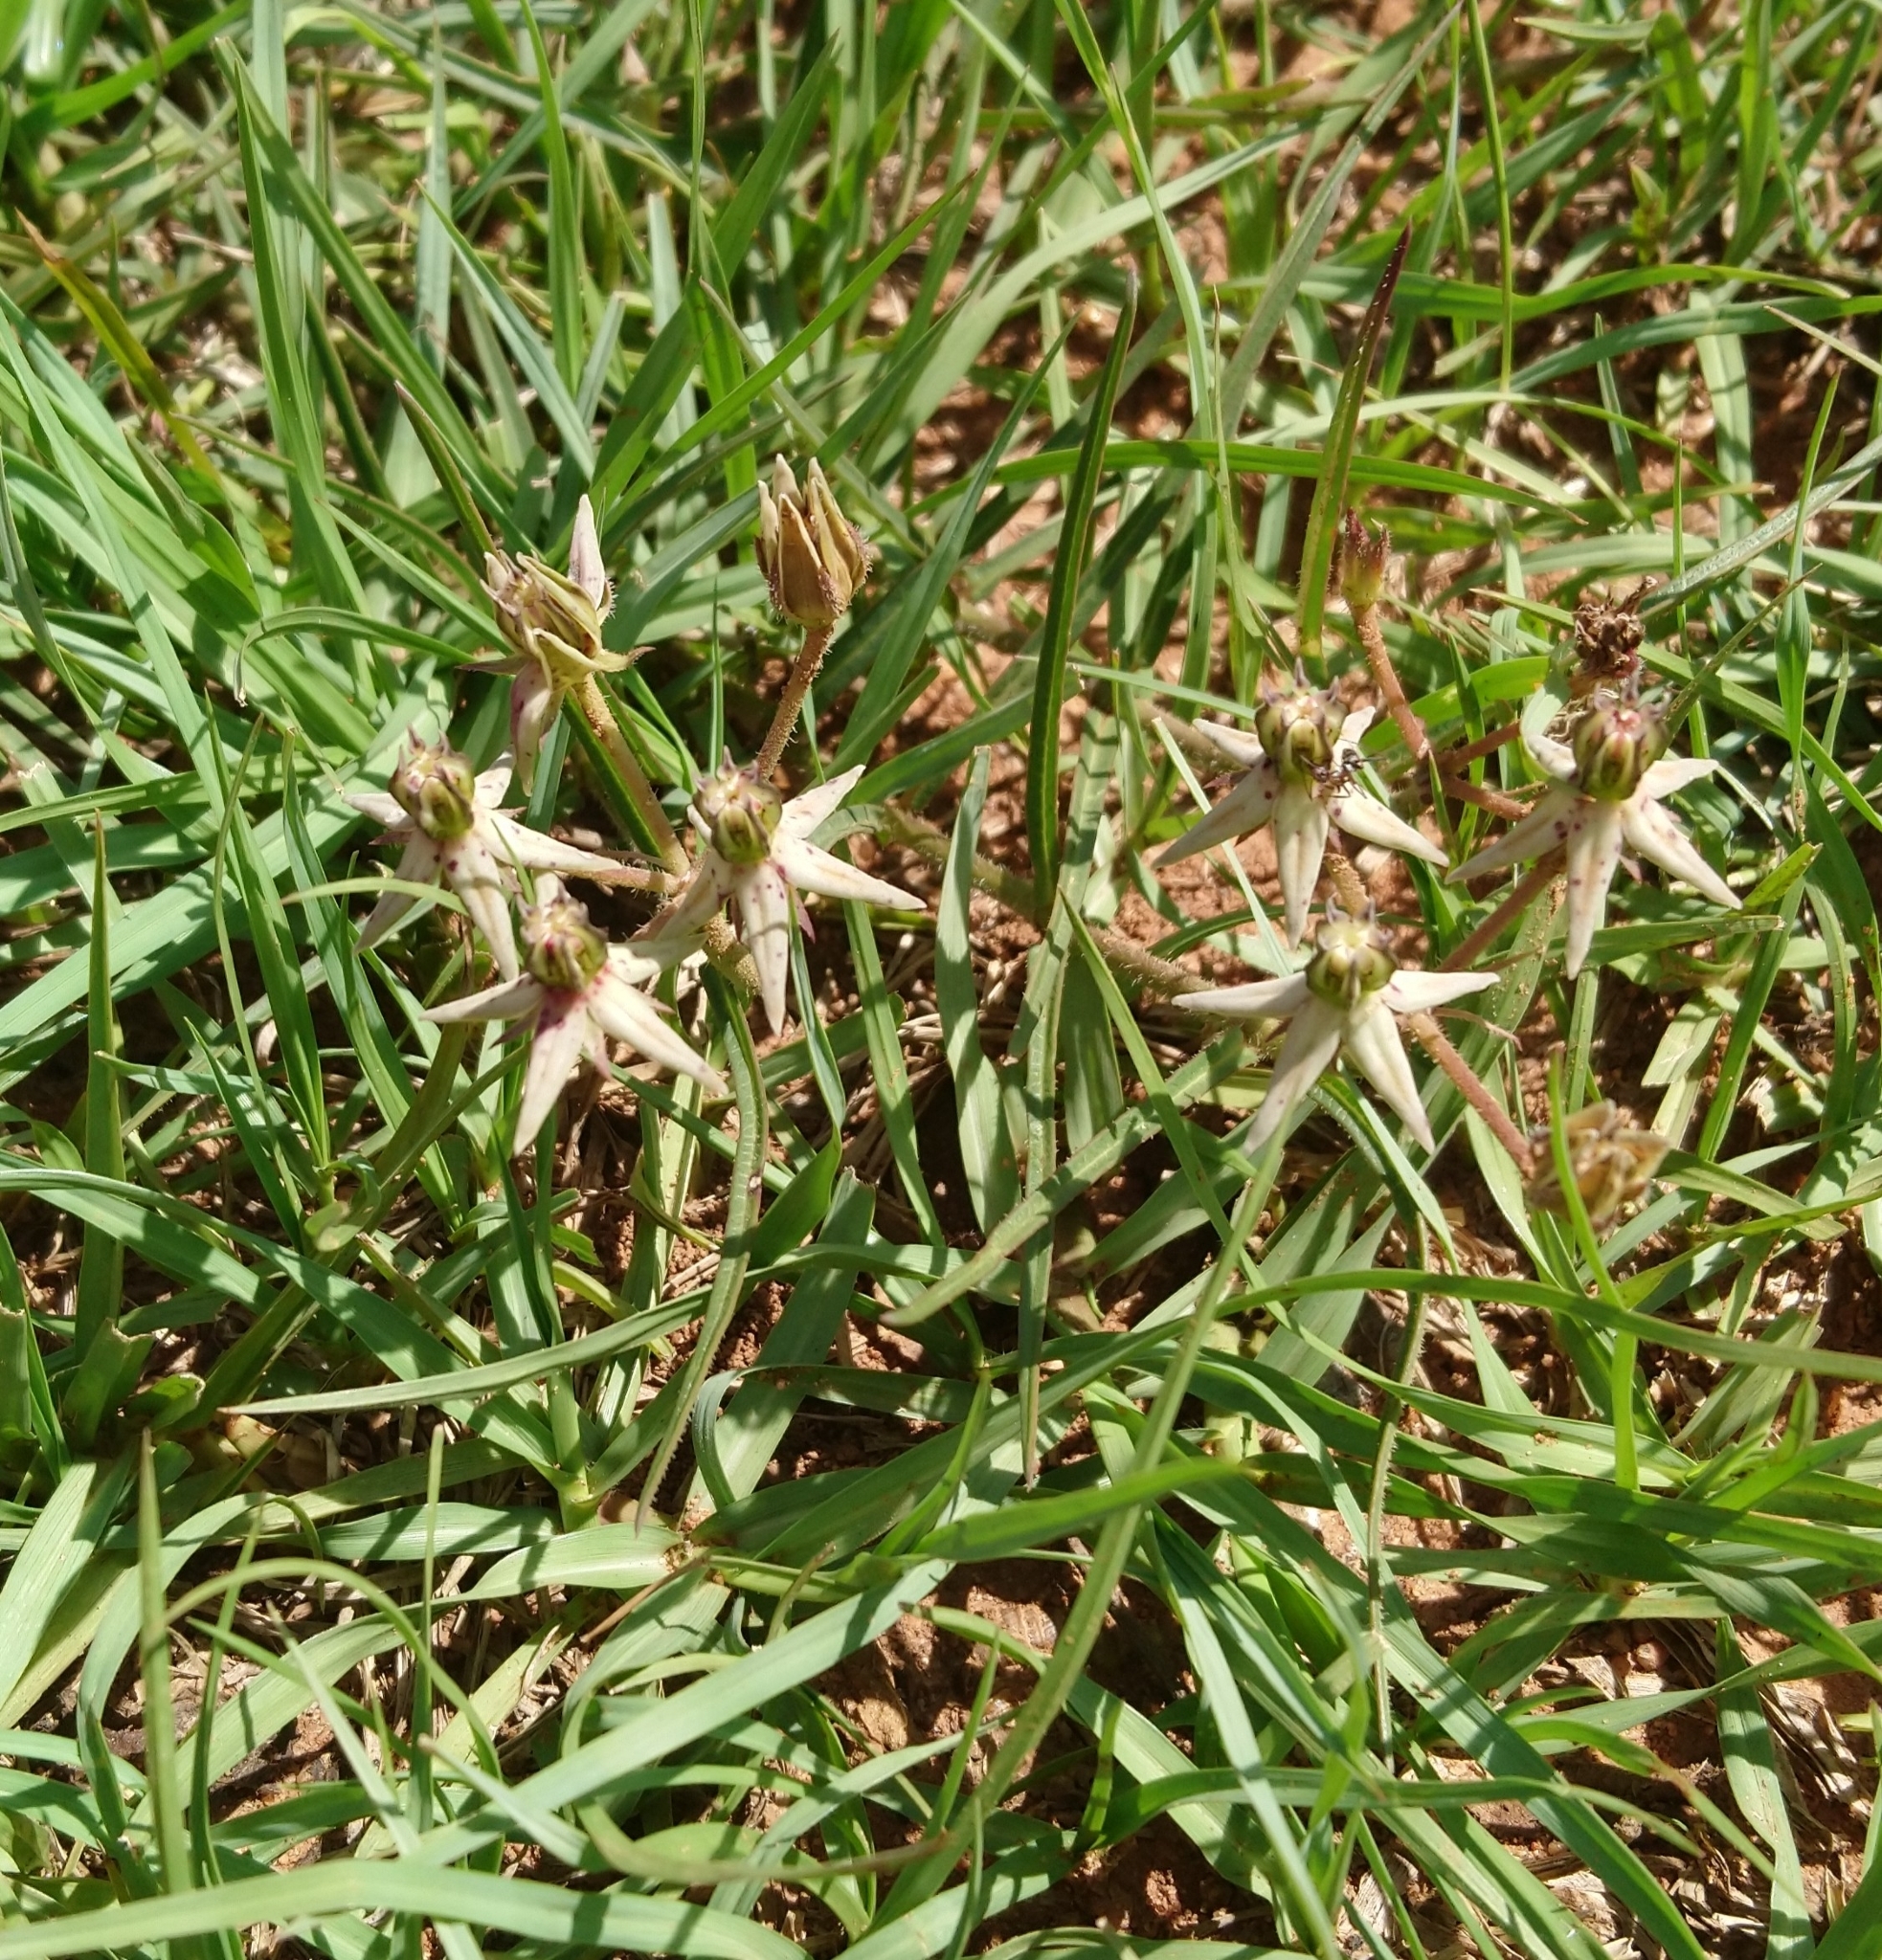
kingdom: Plantae
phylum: Tracheophyta
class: Magnoliopsida
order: Gentianales
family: Apocynaceae
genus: Asclepias
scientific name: Asclepias gibba
